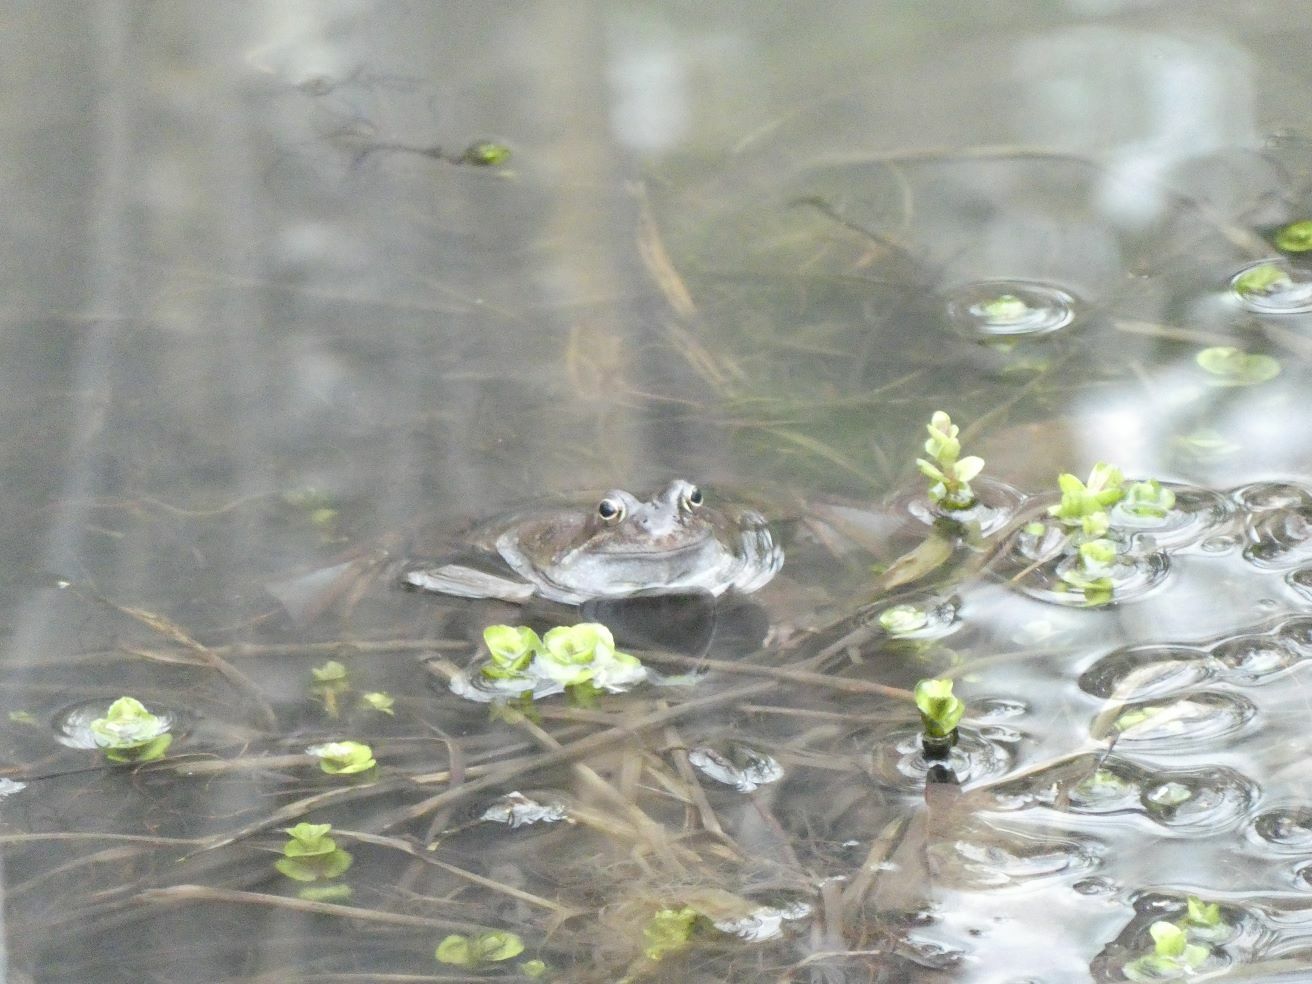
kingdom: Animalia
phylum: Chordata
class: Amphibia
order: Anura
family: Ranidae
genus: Rana
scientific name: Rana temporaria
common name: Common frog
